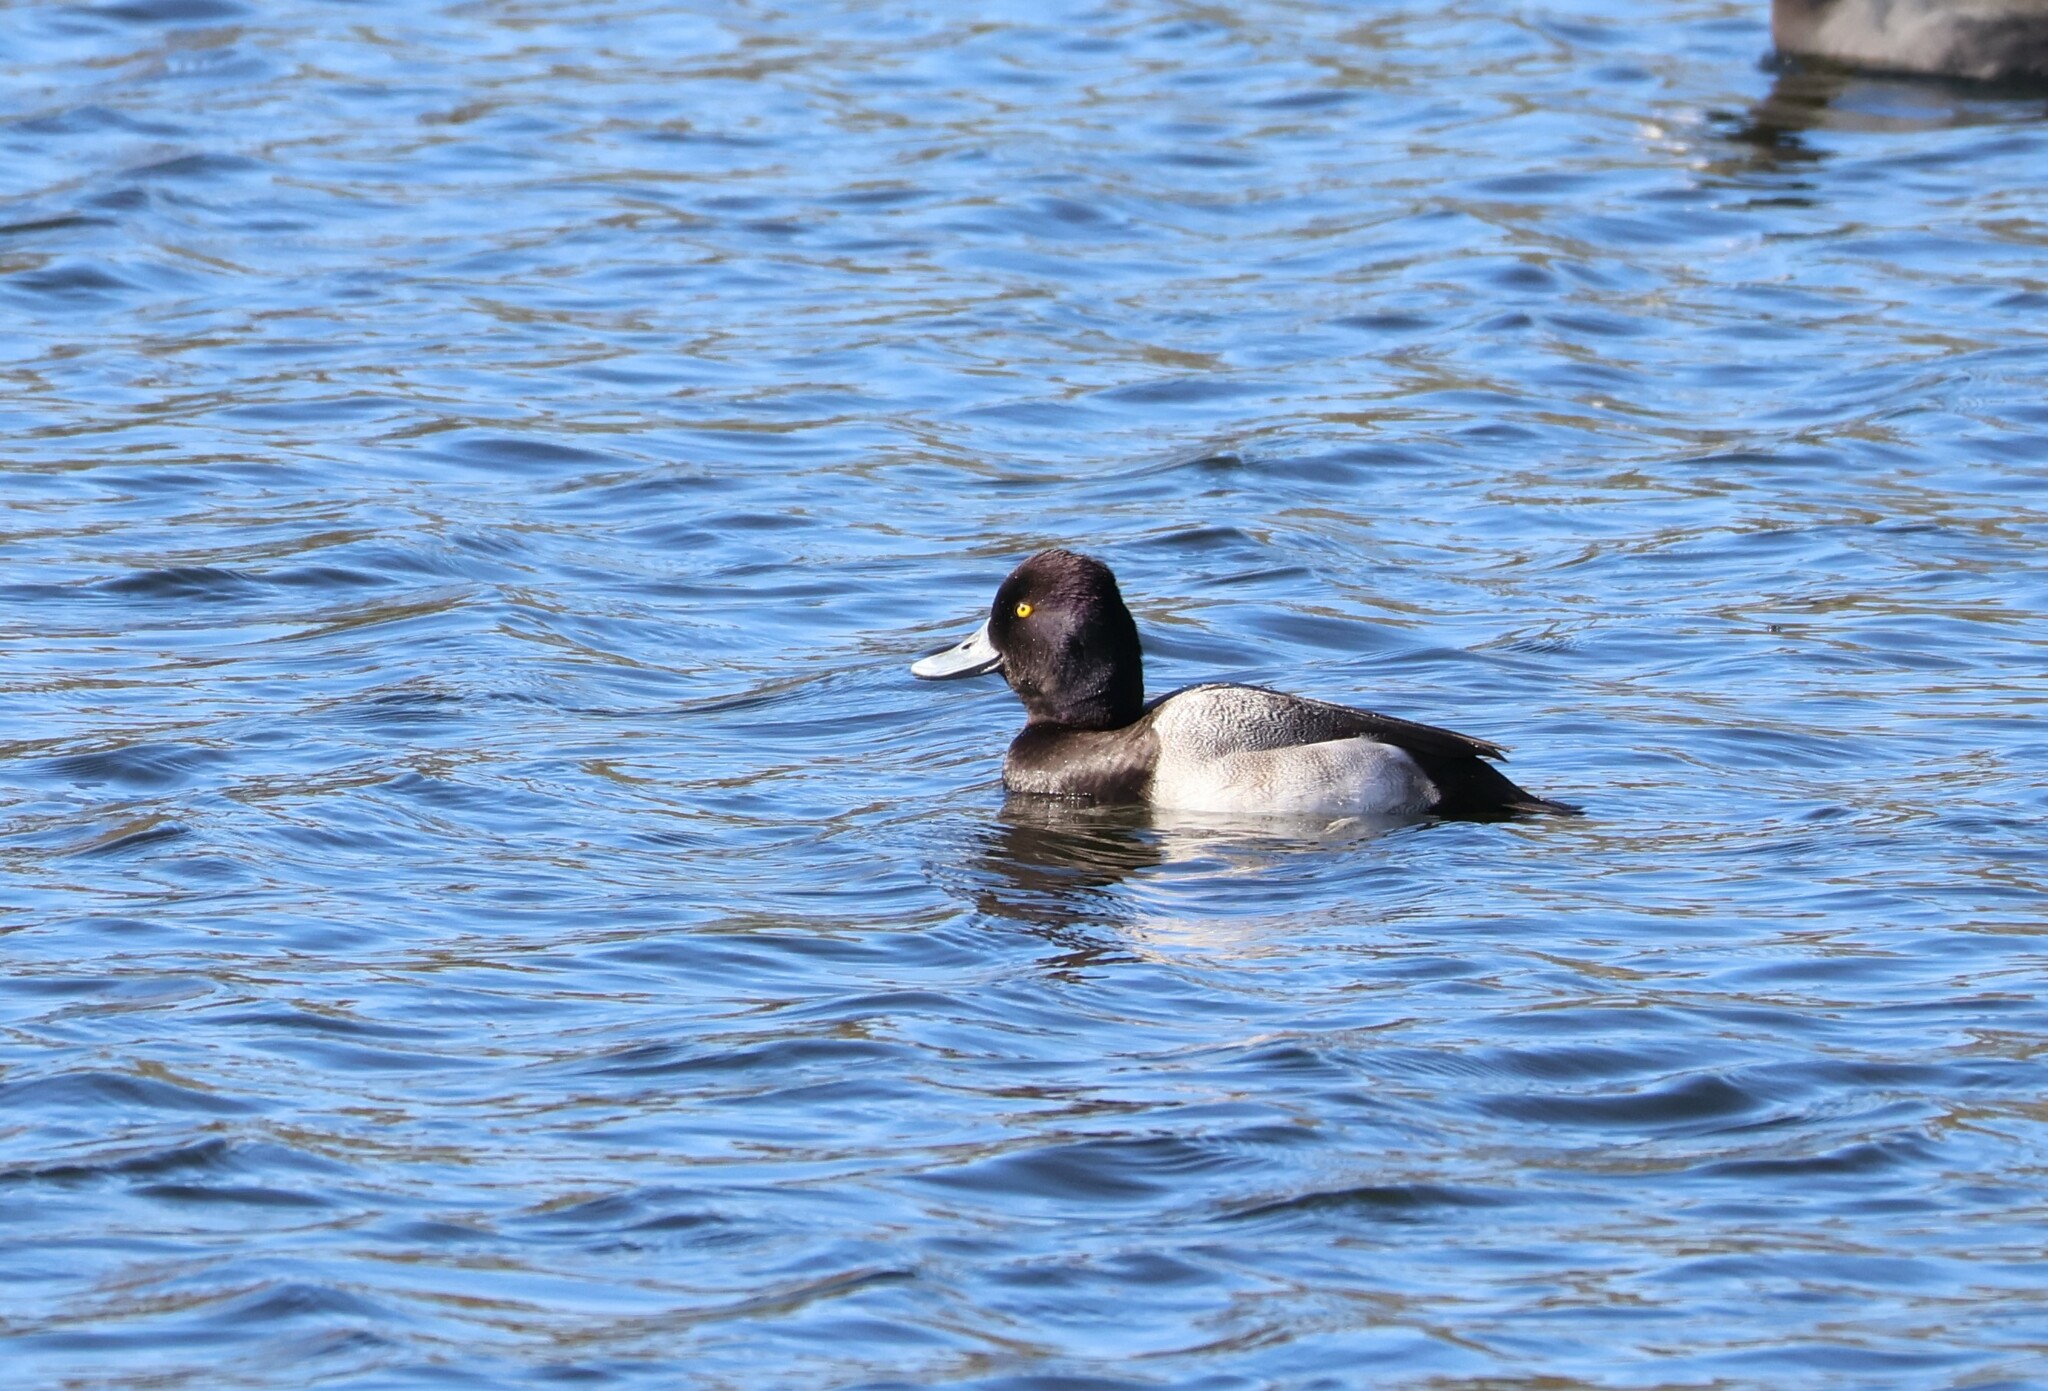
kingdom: Animalia
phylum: Chordata
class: Aves
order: Anseriformes
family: Anatidae
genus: Aythya
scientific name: Aythya affinis
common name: Lesser scaup
